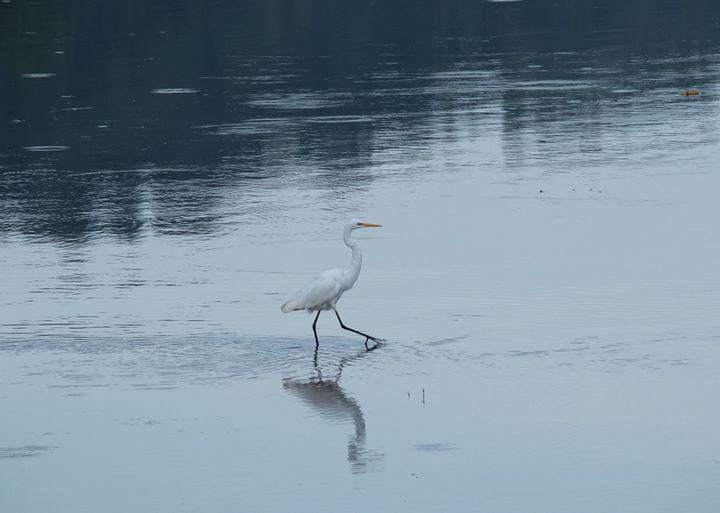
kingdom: Animalia
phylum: Chordata
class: Aves
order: Pelecaniformes
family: Ardeidae
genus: Ardea
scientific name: Ardea modesta
